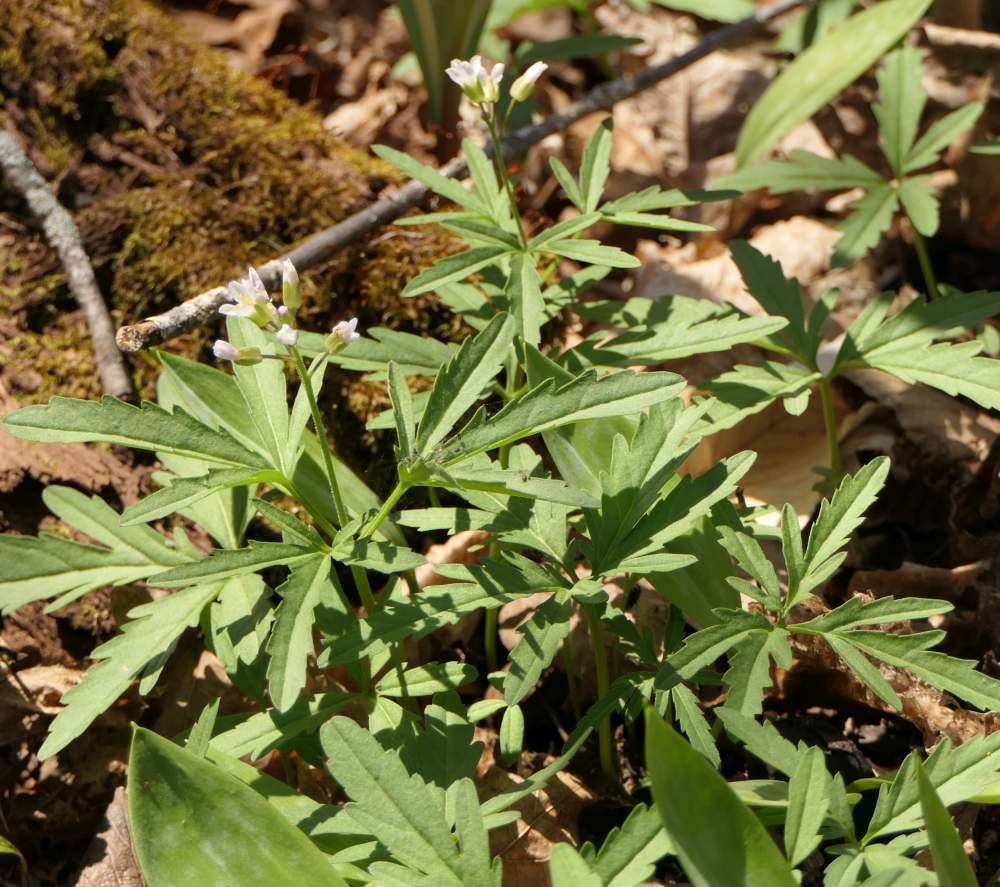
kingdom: Plantae
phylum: Tracheophyta
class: Magnoliopsida
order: Brassicales
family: Brassicaceae
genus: Cardamine
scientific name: Cardamine concatenata
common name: Cut-leaf toothcup
